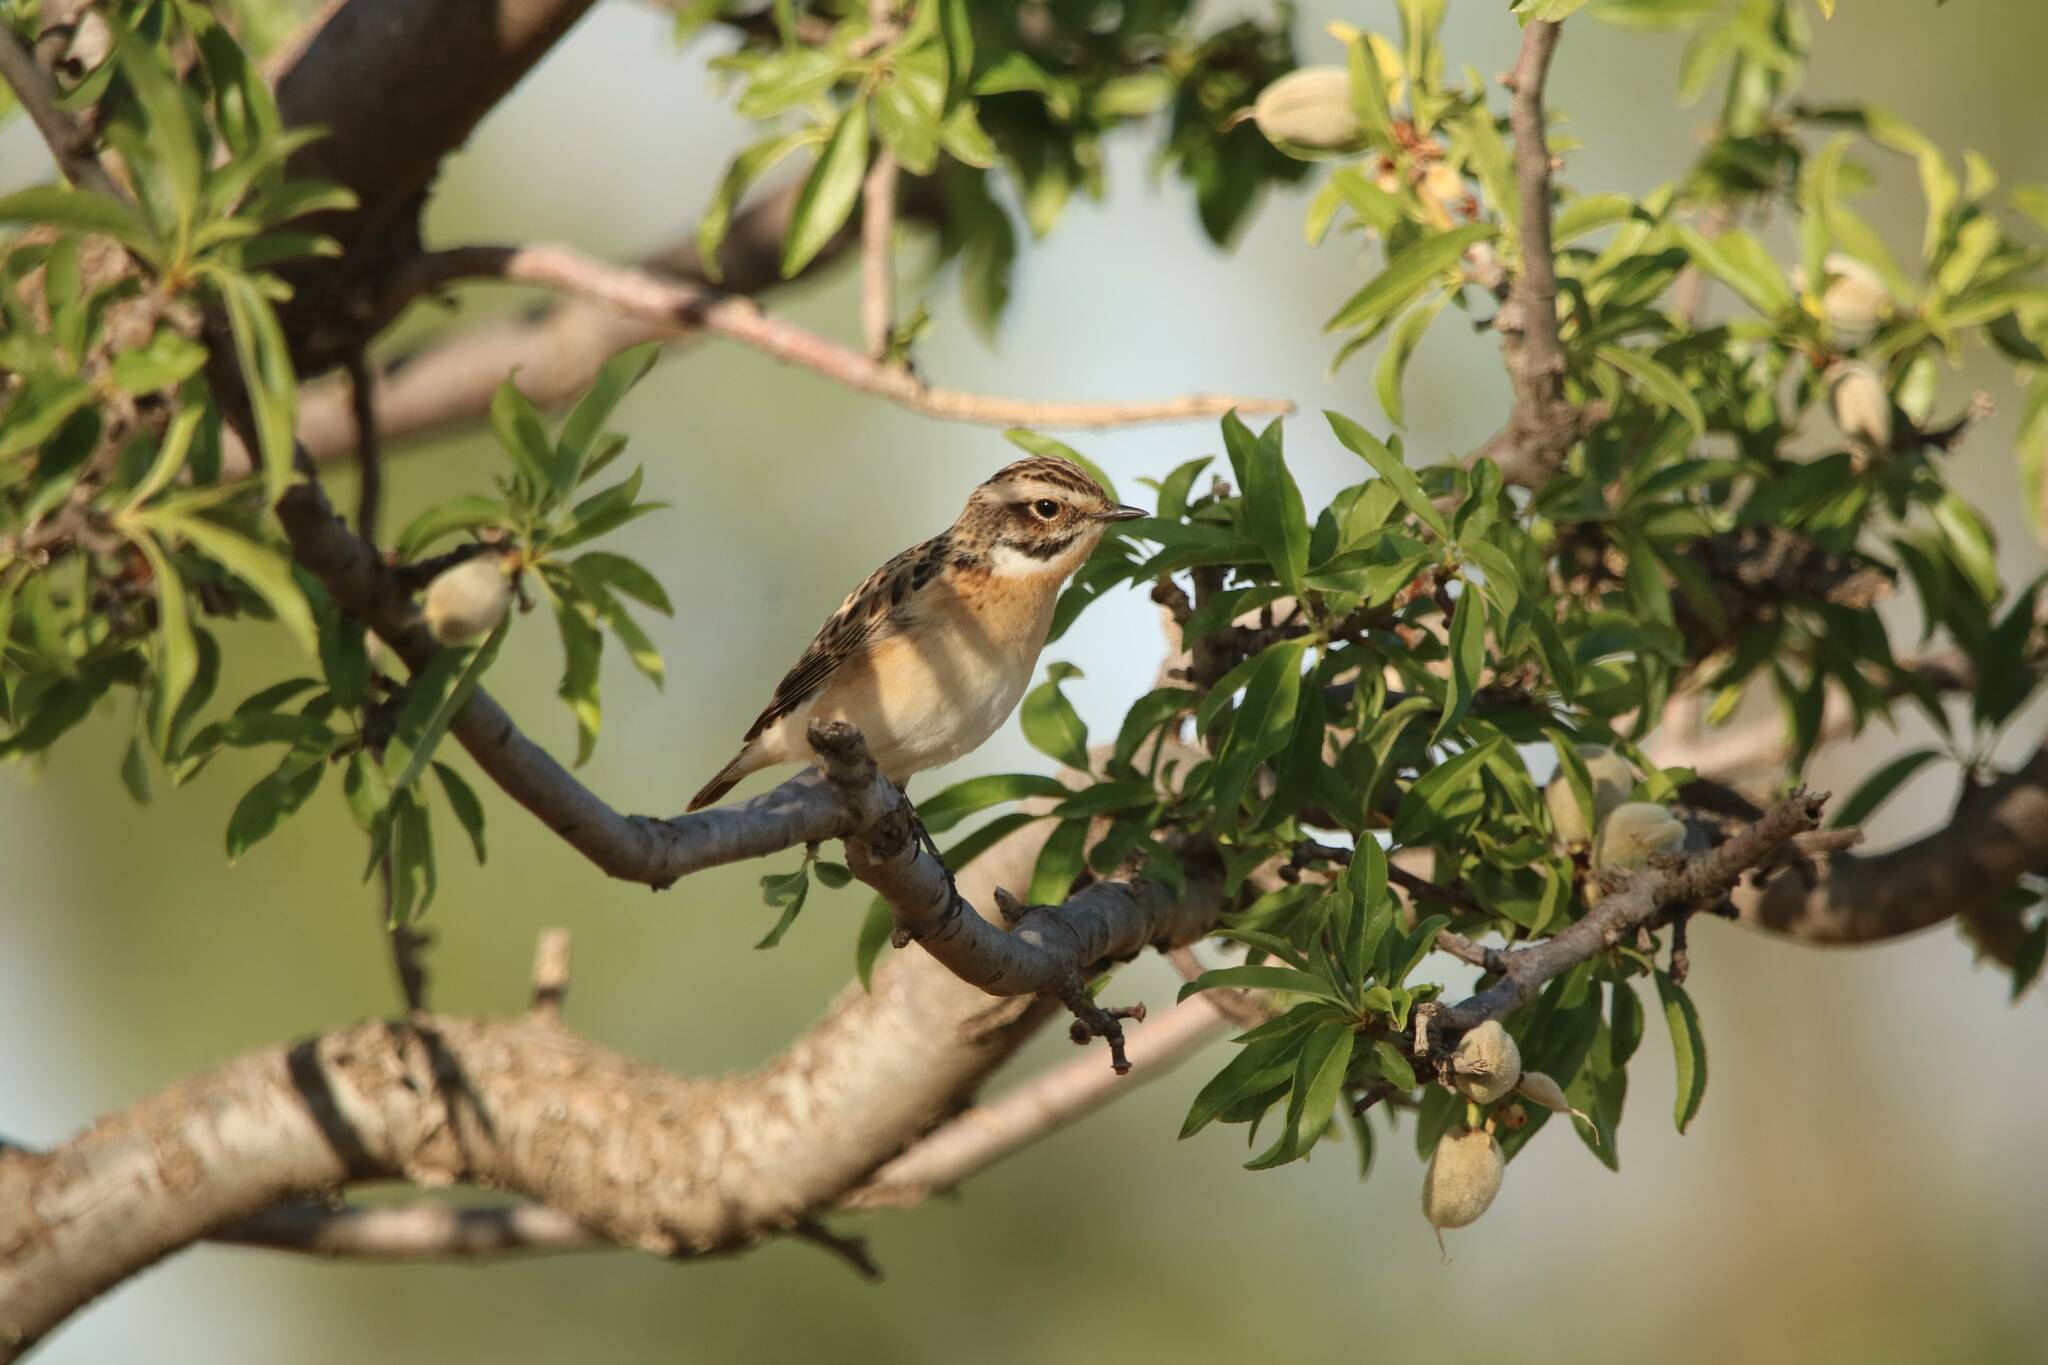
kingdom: Animalia
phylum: Chordata
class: Aves
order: Passeriformes
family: Muscicapidae
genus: Saxicola
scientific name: Saxicola rubetra
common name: Whinchat
